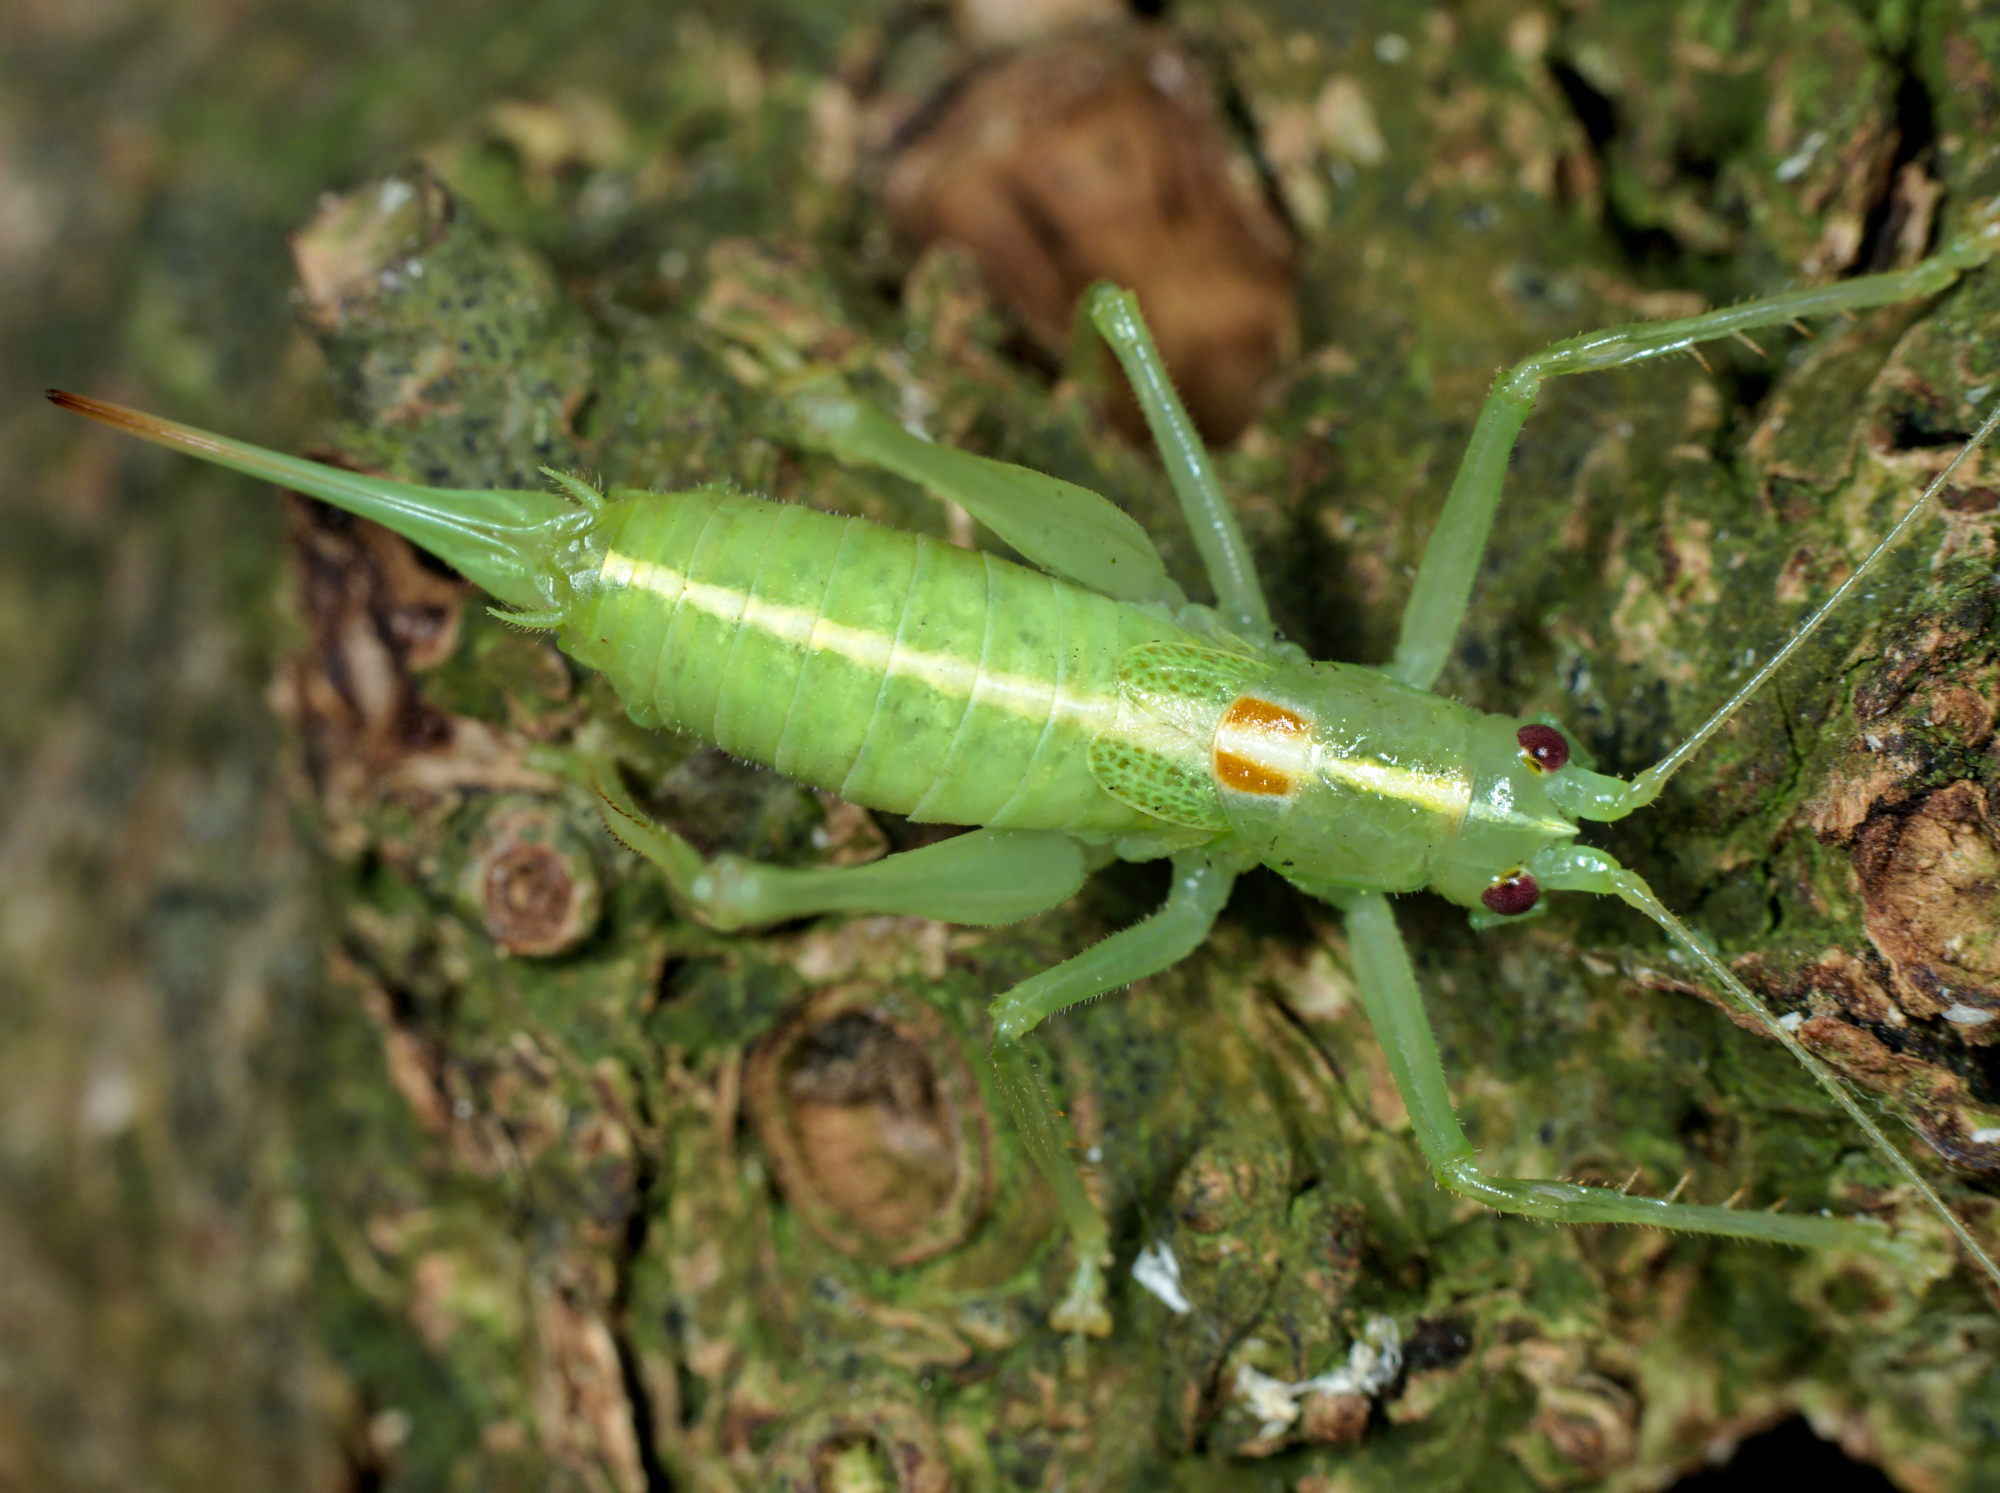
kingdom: Animalia
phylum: Arthropoda
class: Insecta
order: Orthoptera
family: Tettigoniidae
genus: Meconema
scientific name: Meconema meridionale
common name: Southern oak bush-cricket
